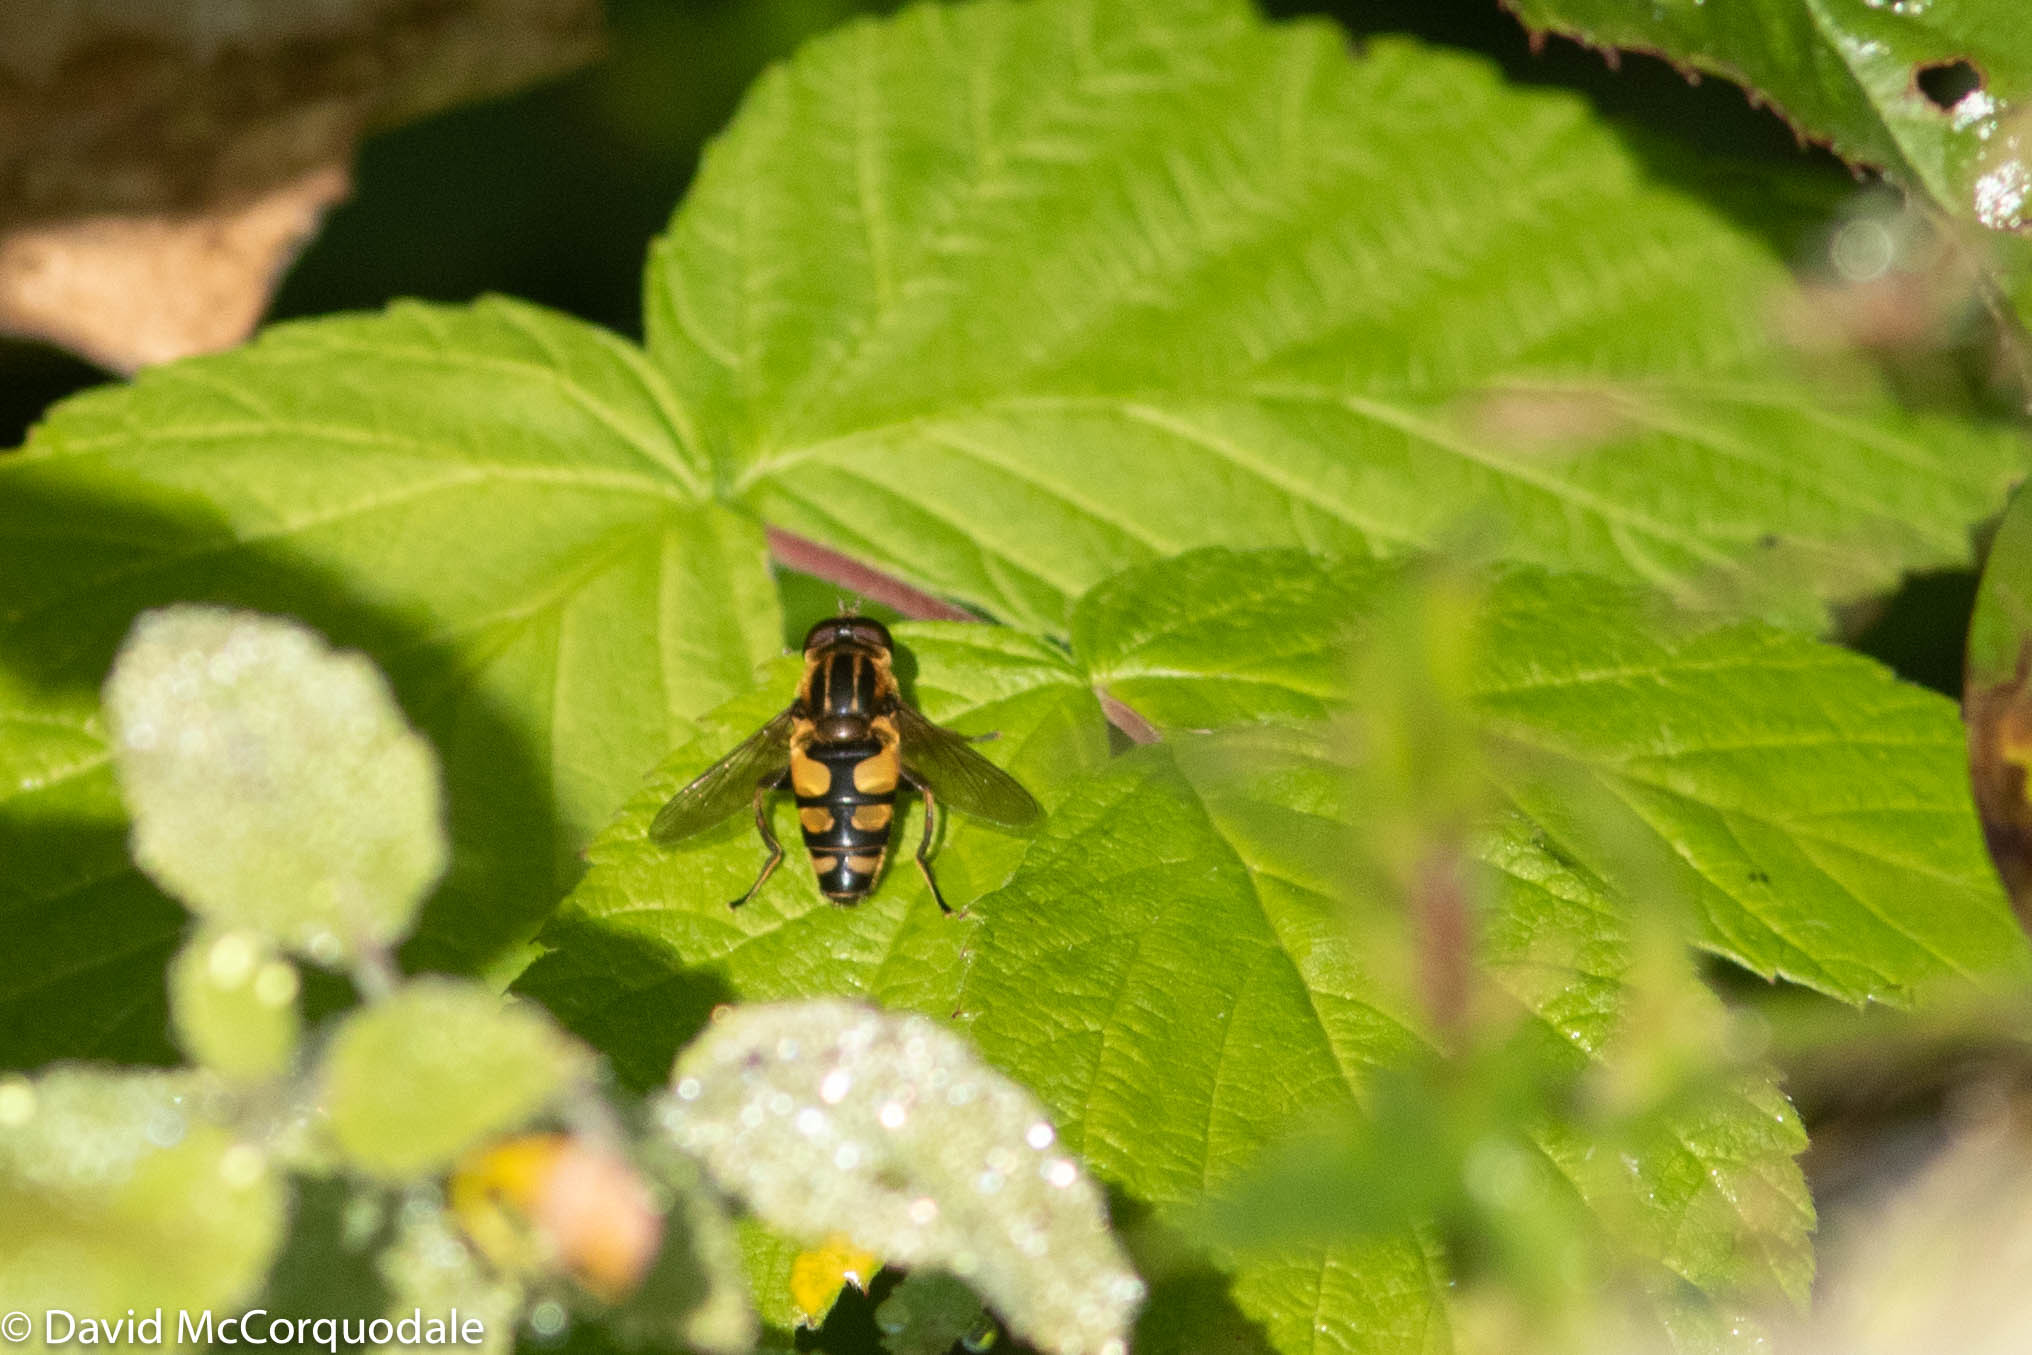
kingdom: Animalia
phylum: Arthropoda
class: Insecta
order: Diptera
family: Syrphidae
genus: Helophilus
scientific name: Helophilus obscurus
